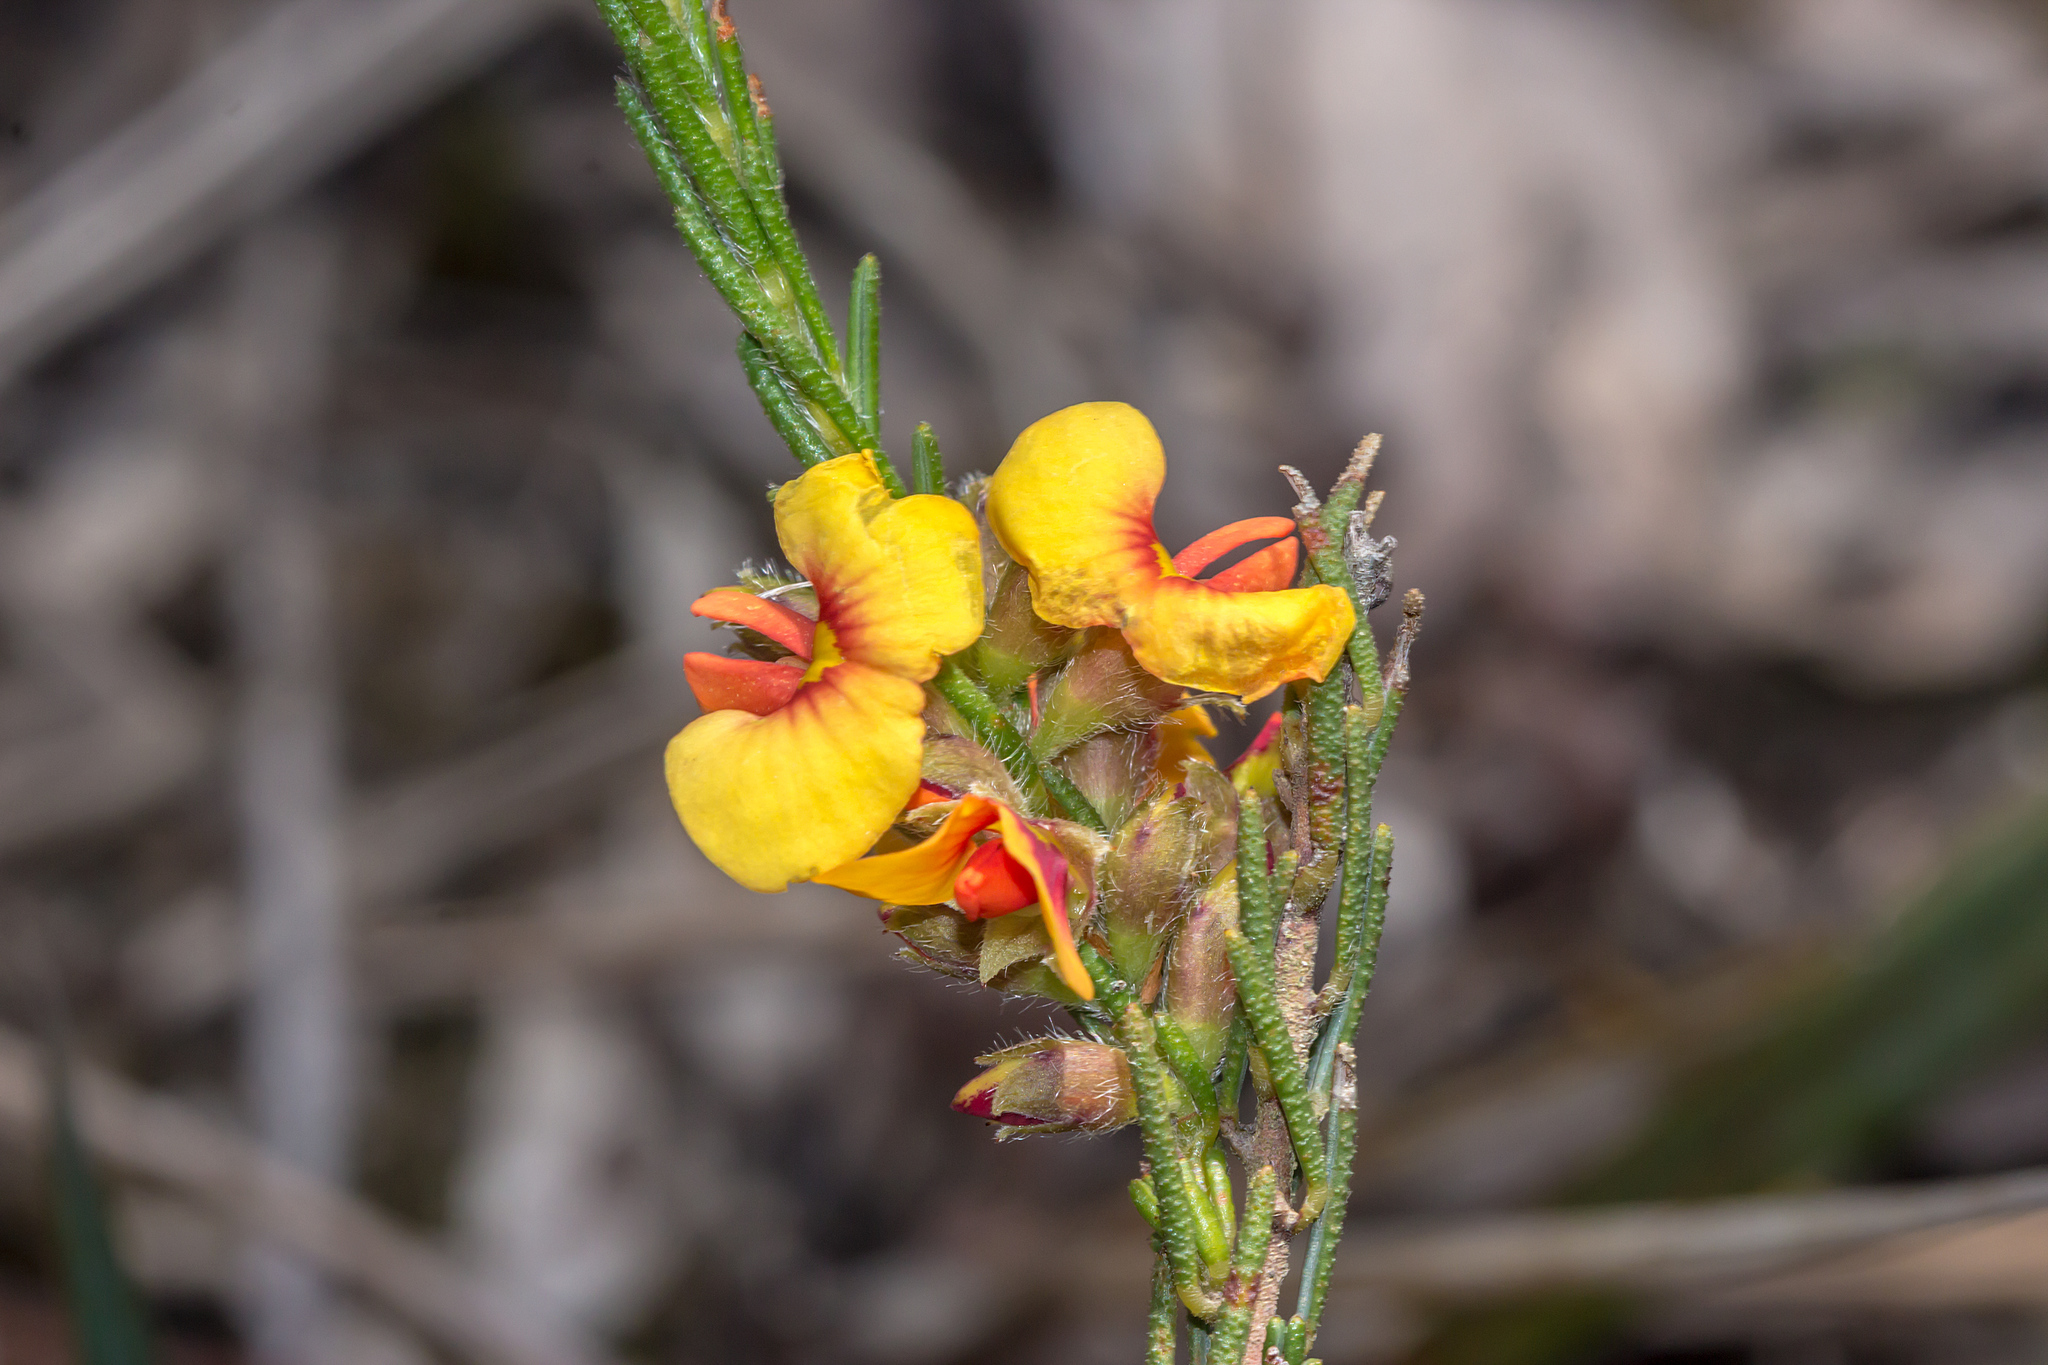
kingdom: Plantae
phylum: Tracheophyta
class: Magnoliopsida
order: Fabales
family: Fabaceae
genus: Dillwynia
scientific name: Dillwynia sericea
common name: Showy parrot-pea
